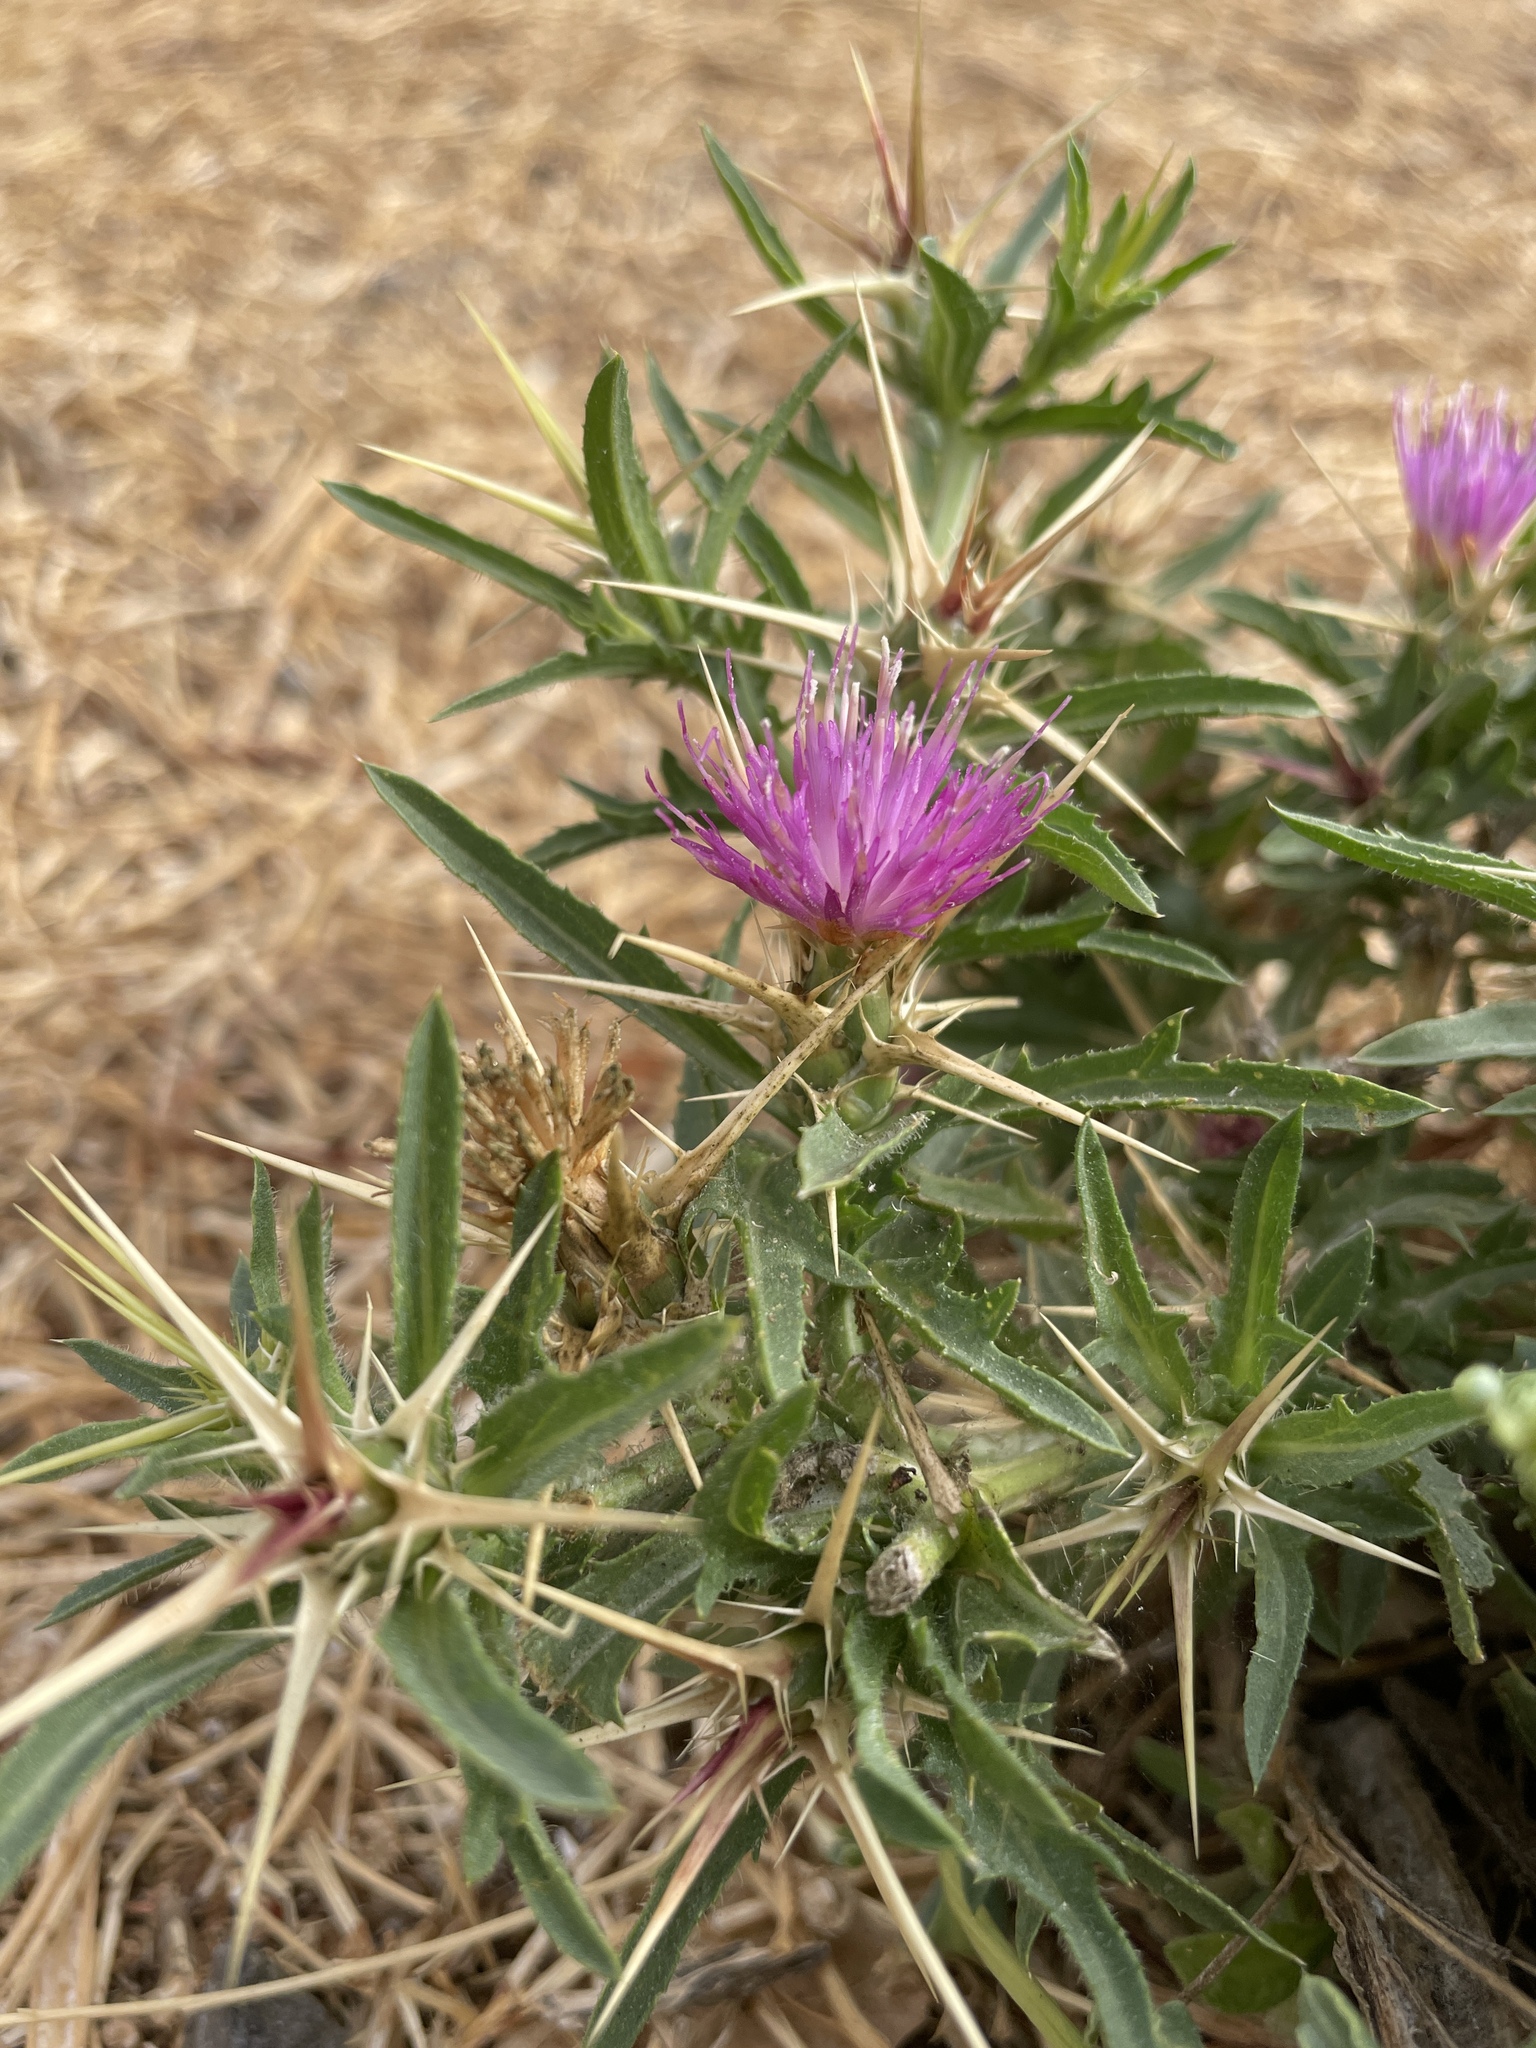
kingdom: Plantae
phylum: Tracheophyta
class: Magnoliopsida
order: Asterales
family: Asteraceae
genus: Centaurea
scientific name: Centaurea calcitrapa
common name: Red star-thistle
